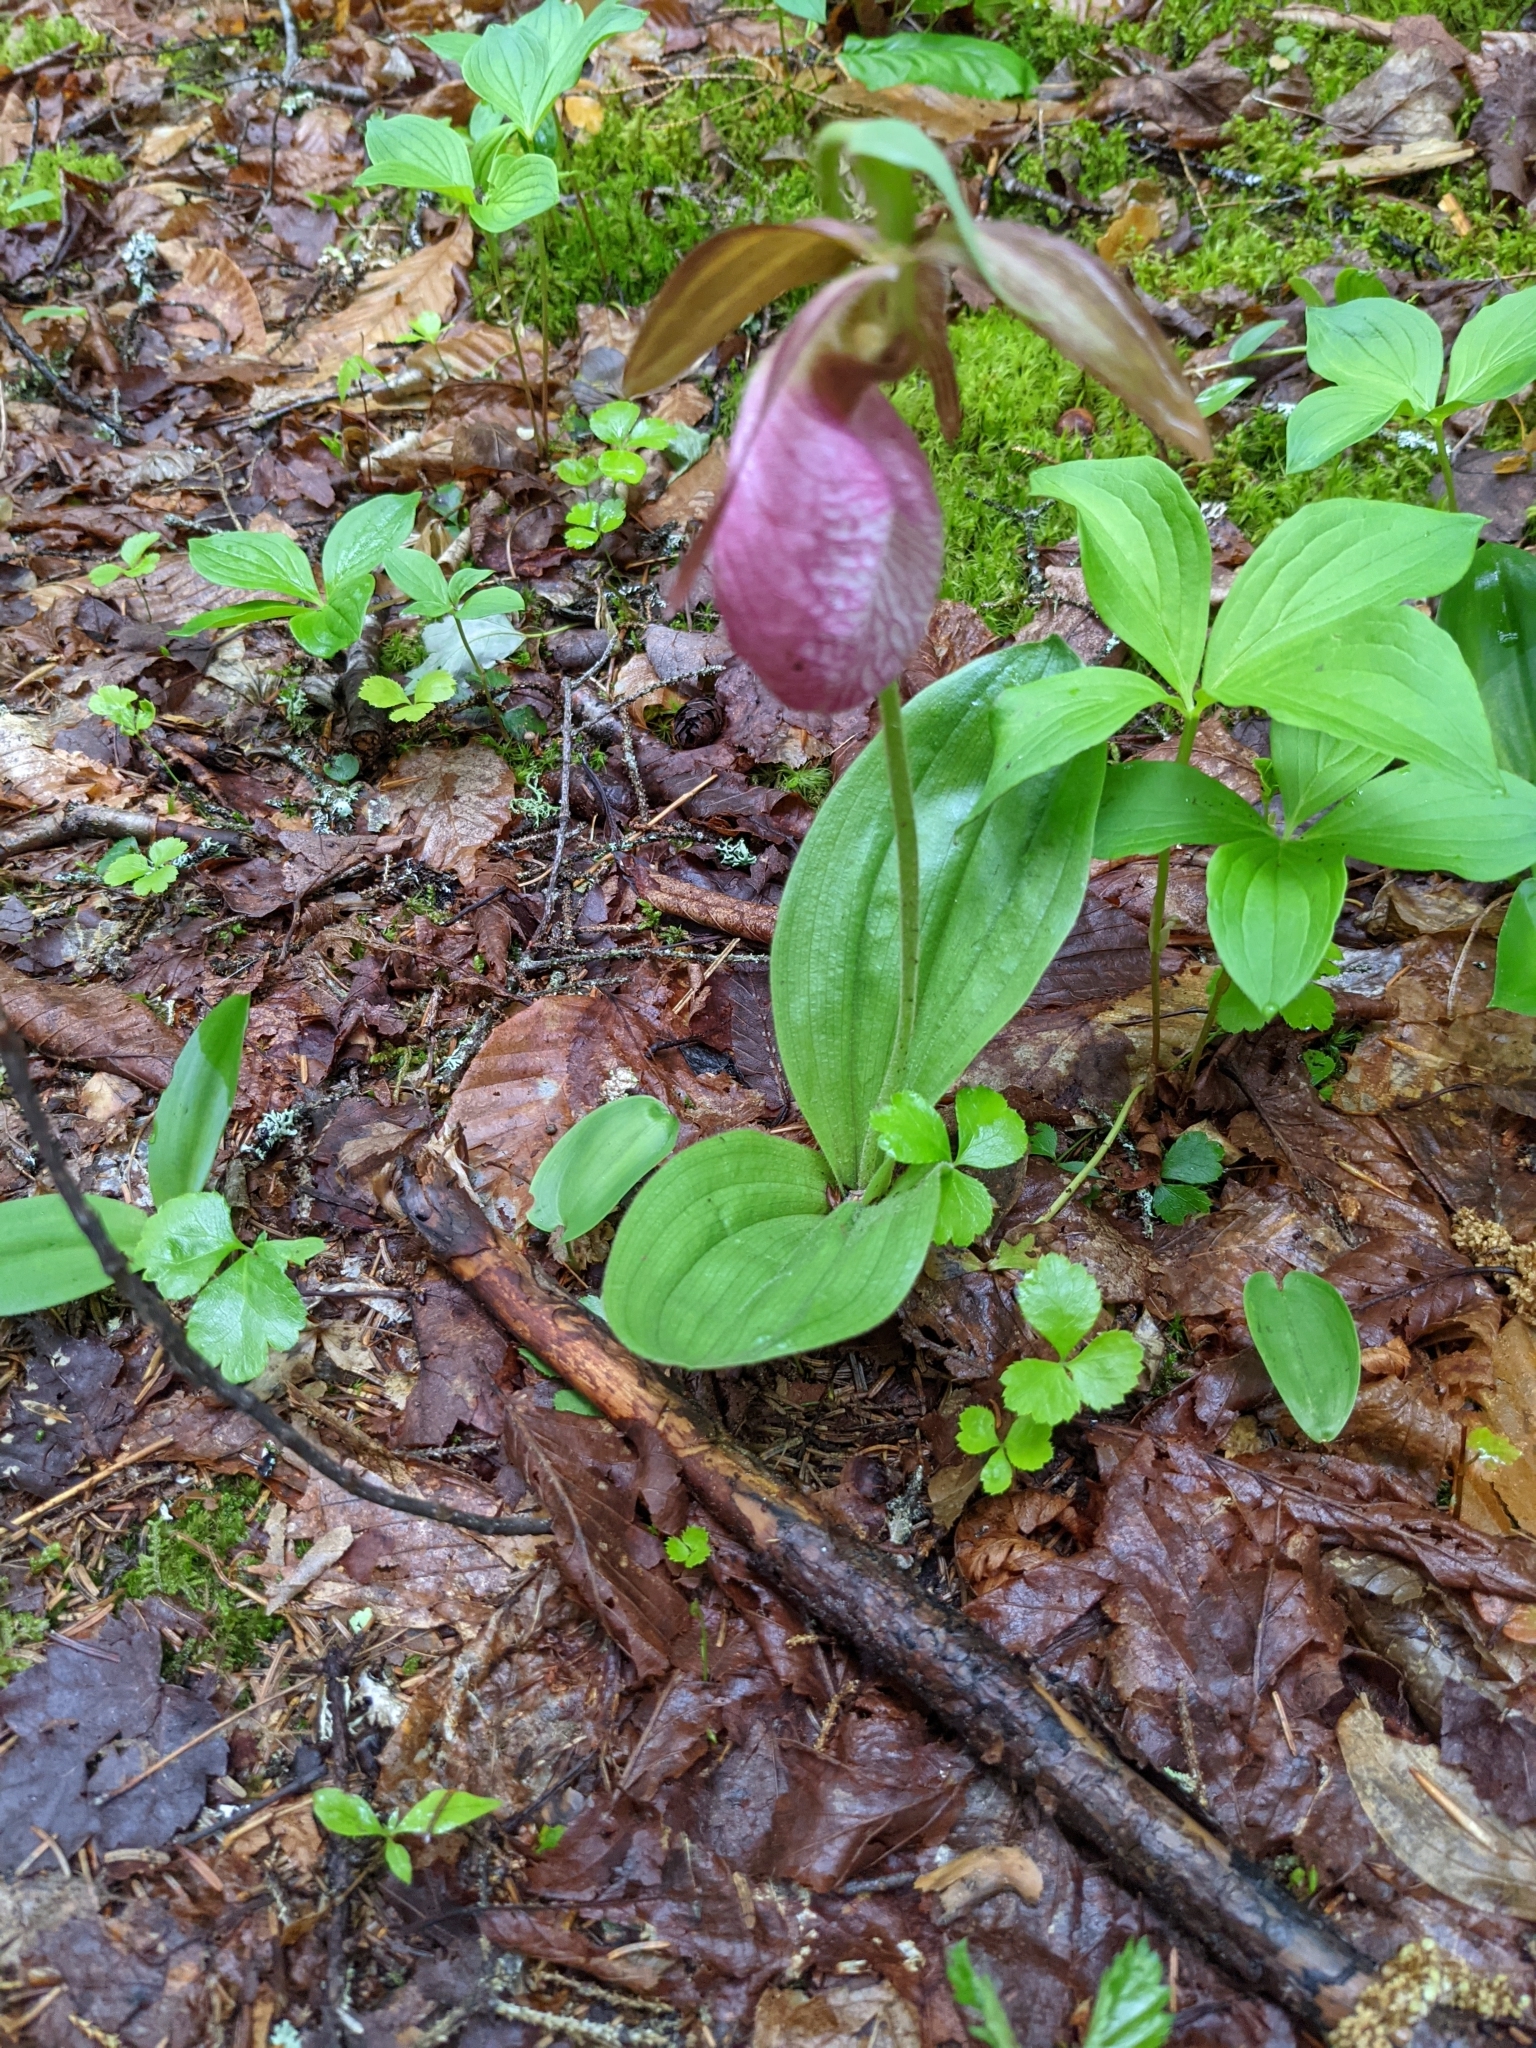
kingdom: Plantae
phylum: Tracheophyta
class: Liliopsida
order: Asparagales
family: Orchidaceae
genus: Cypripedium
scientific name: Cypripedium acaule
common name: Pink lady's-slipper
